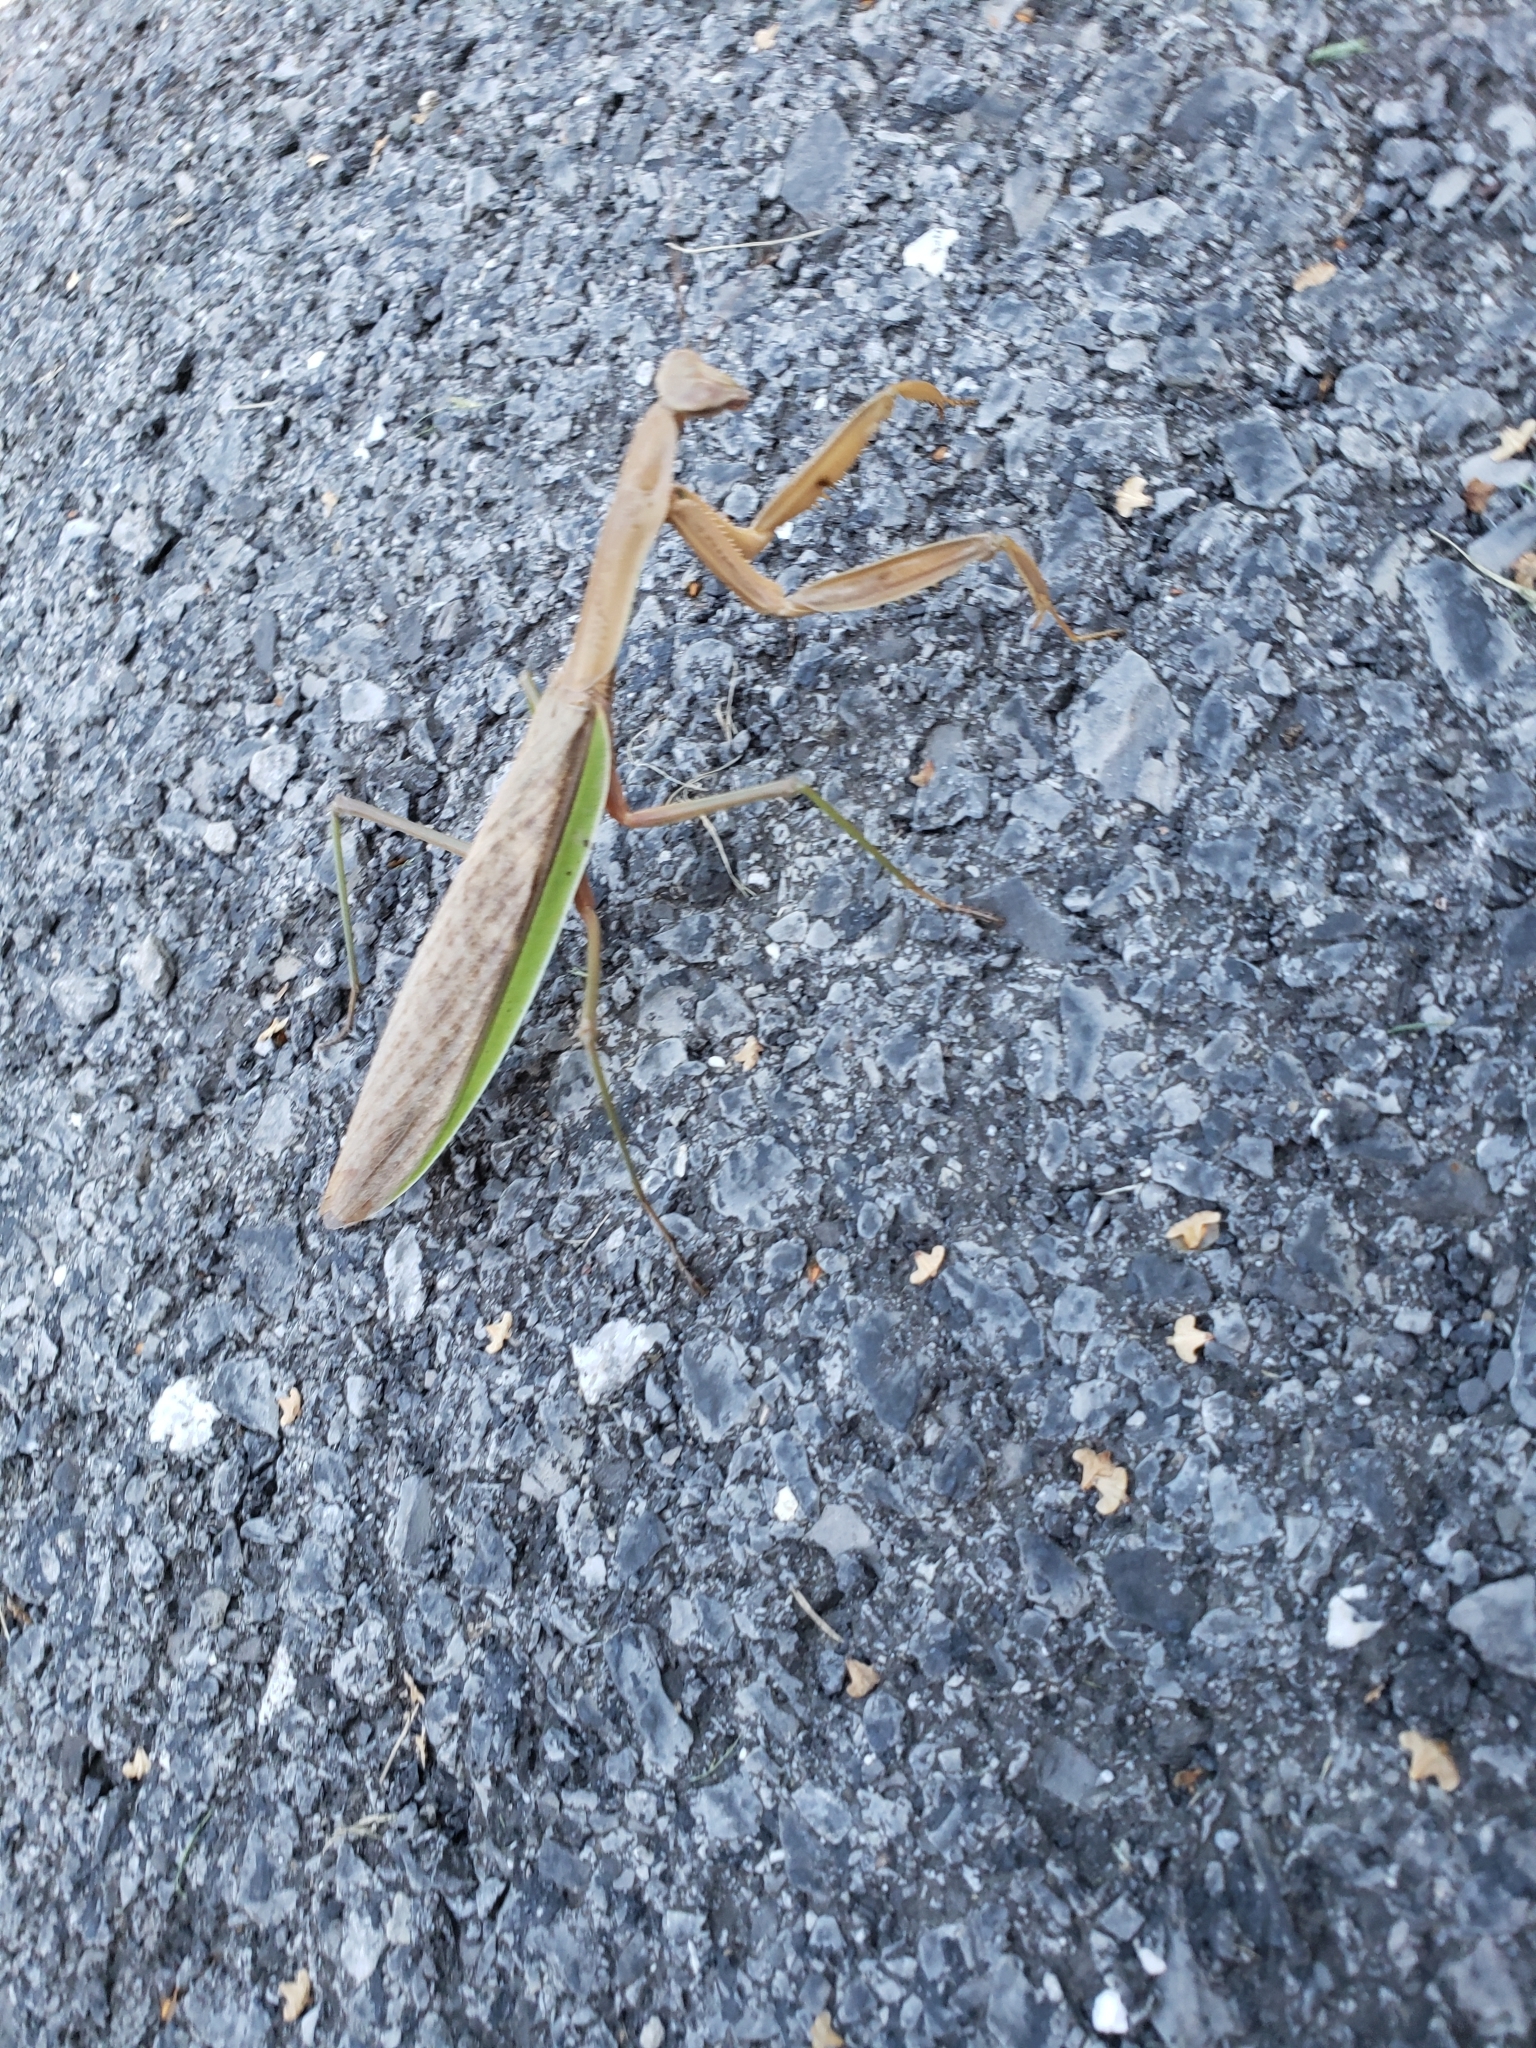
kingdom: Animalia
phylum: Arthropoda
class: Insecta
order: Mantodea
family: Mantidae
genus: Tenodera
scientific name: Tenodera sinensis
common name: Chinese mantis
